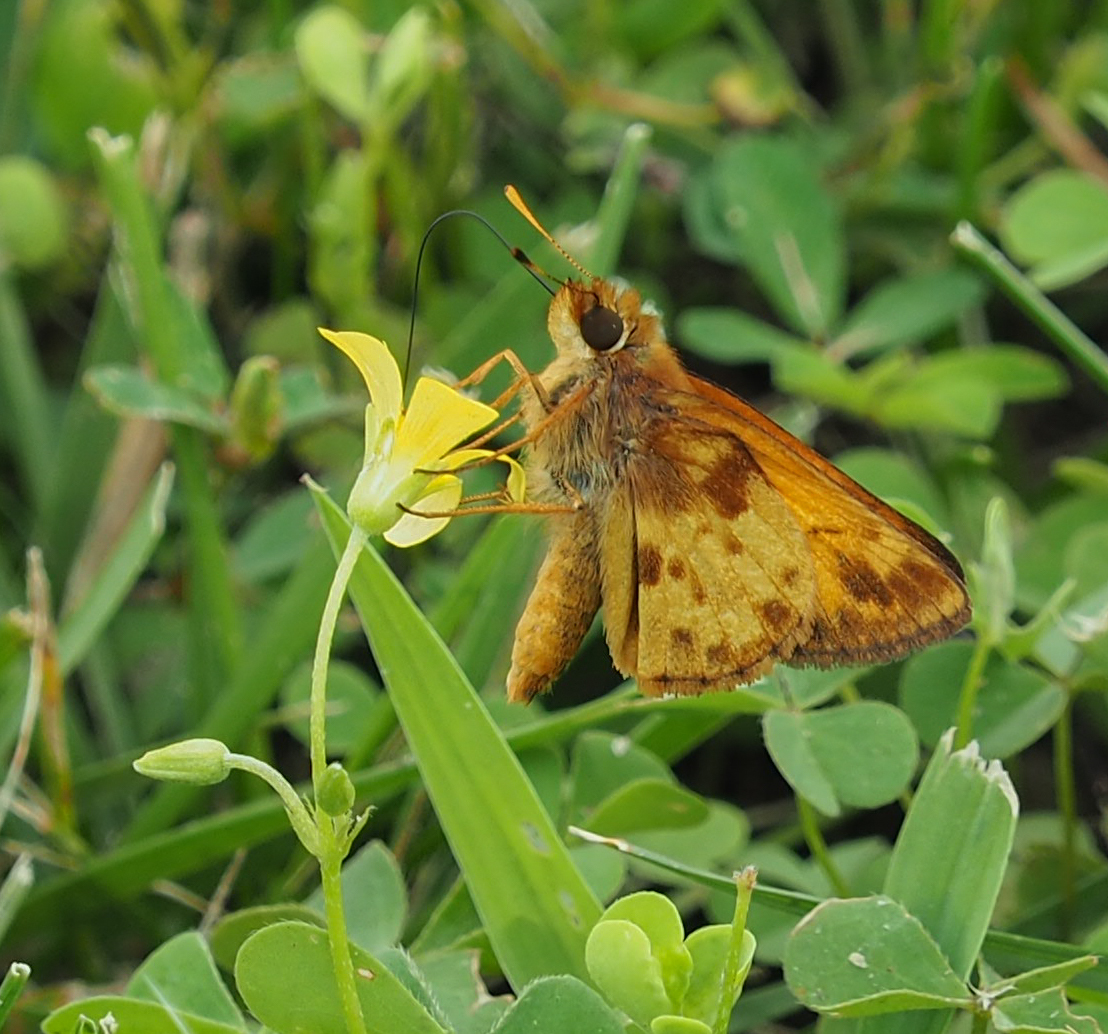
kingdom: Animalia
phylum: Arthropoda
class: Insecta
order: Lepidoptera
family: Hesperiidae
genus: Lon
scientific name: Lon zabulon
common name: Zabulon skipper
